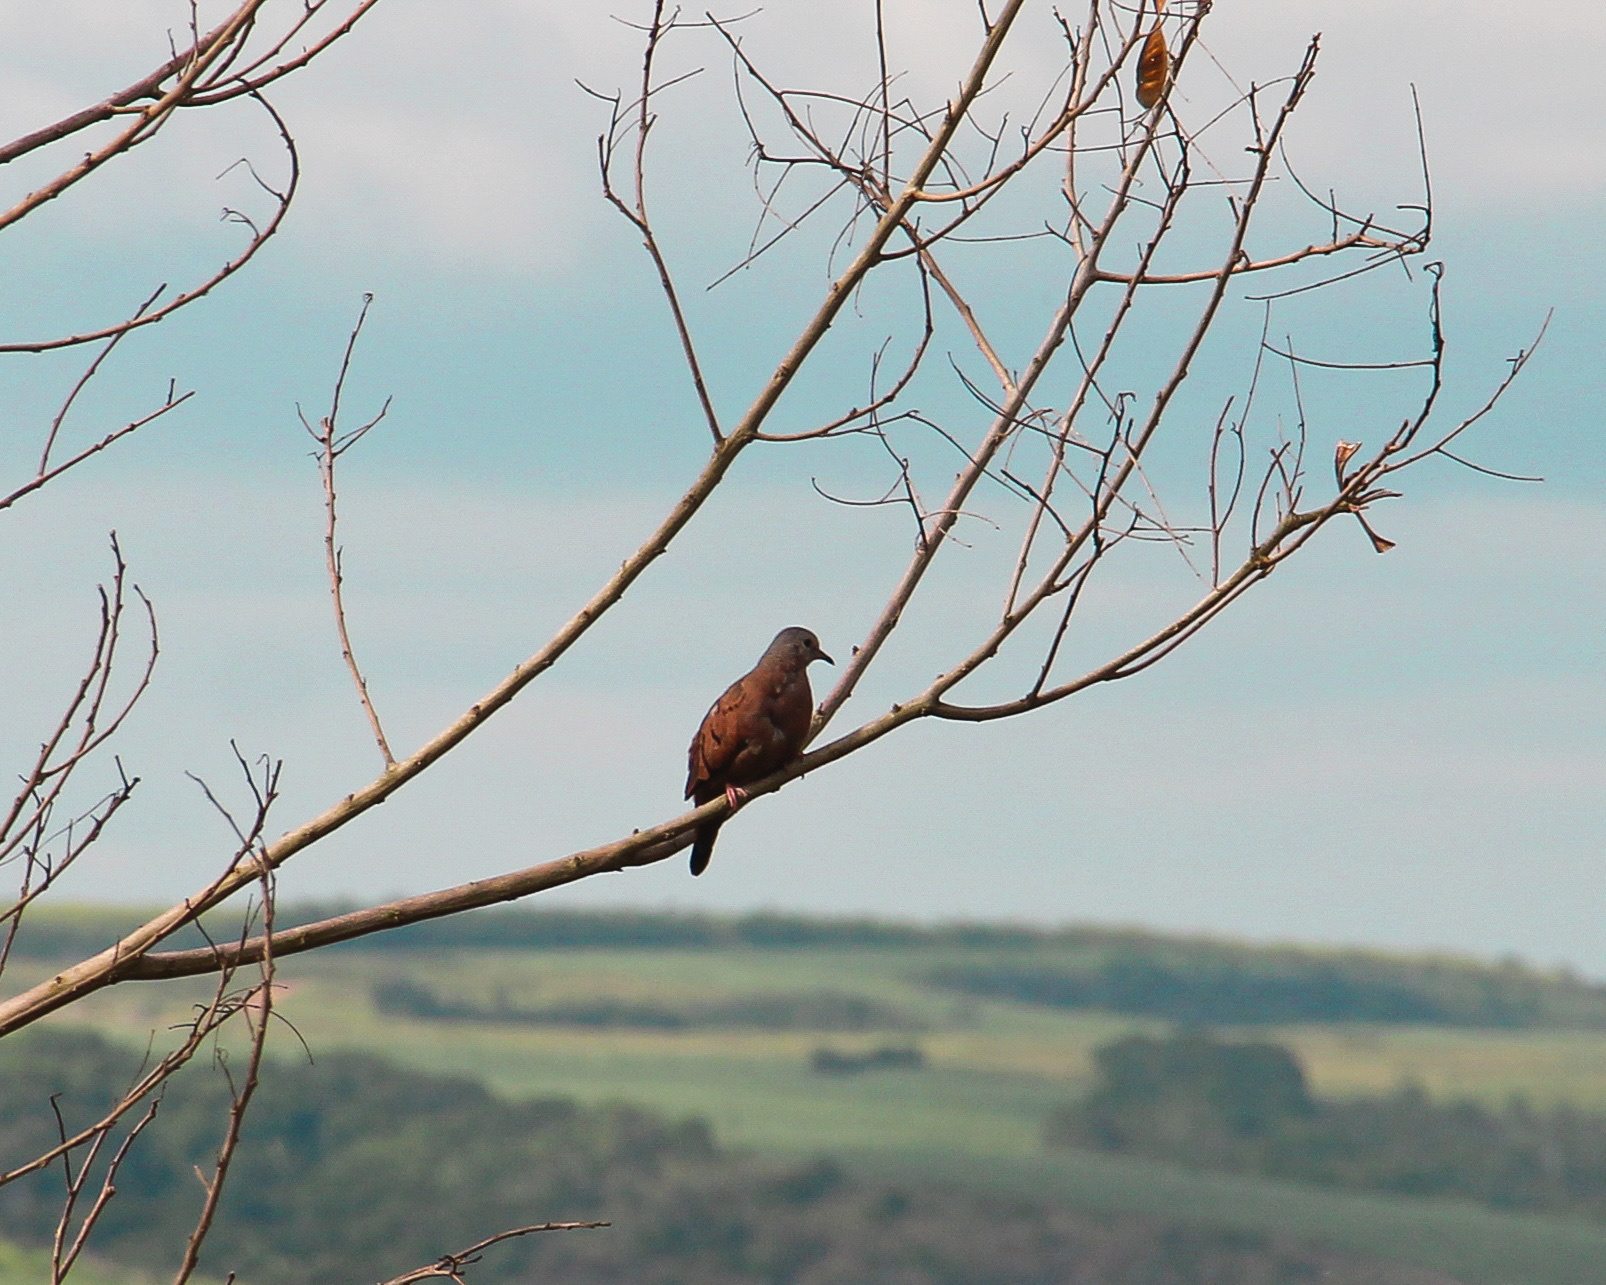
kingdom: Animalia
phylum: Chordata
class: Aves
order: Columbiformes
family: Columbidae
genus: Columbina
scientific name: Columbina talpacoti
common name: Ruddy ground dove
